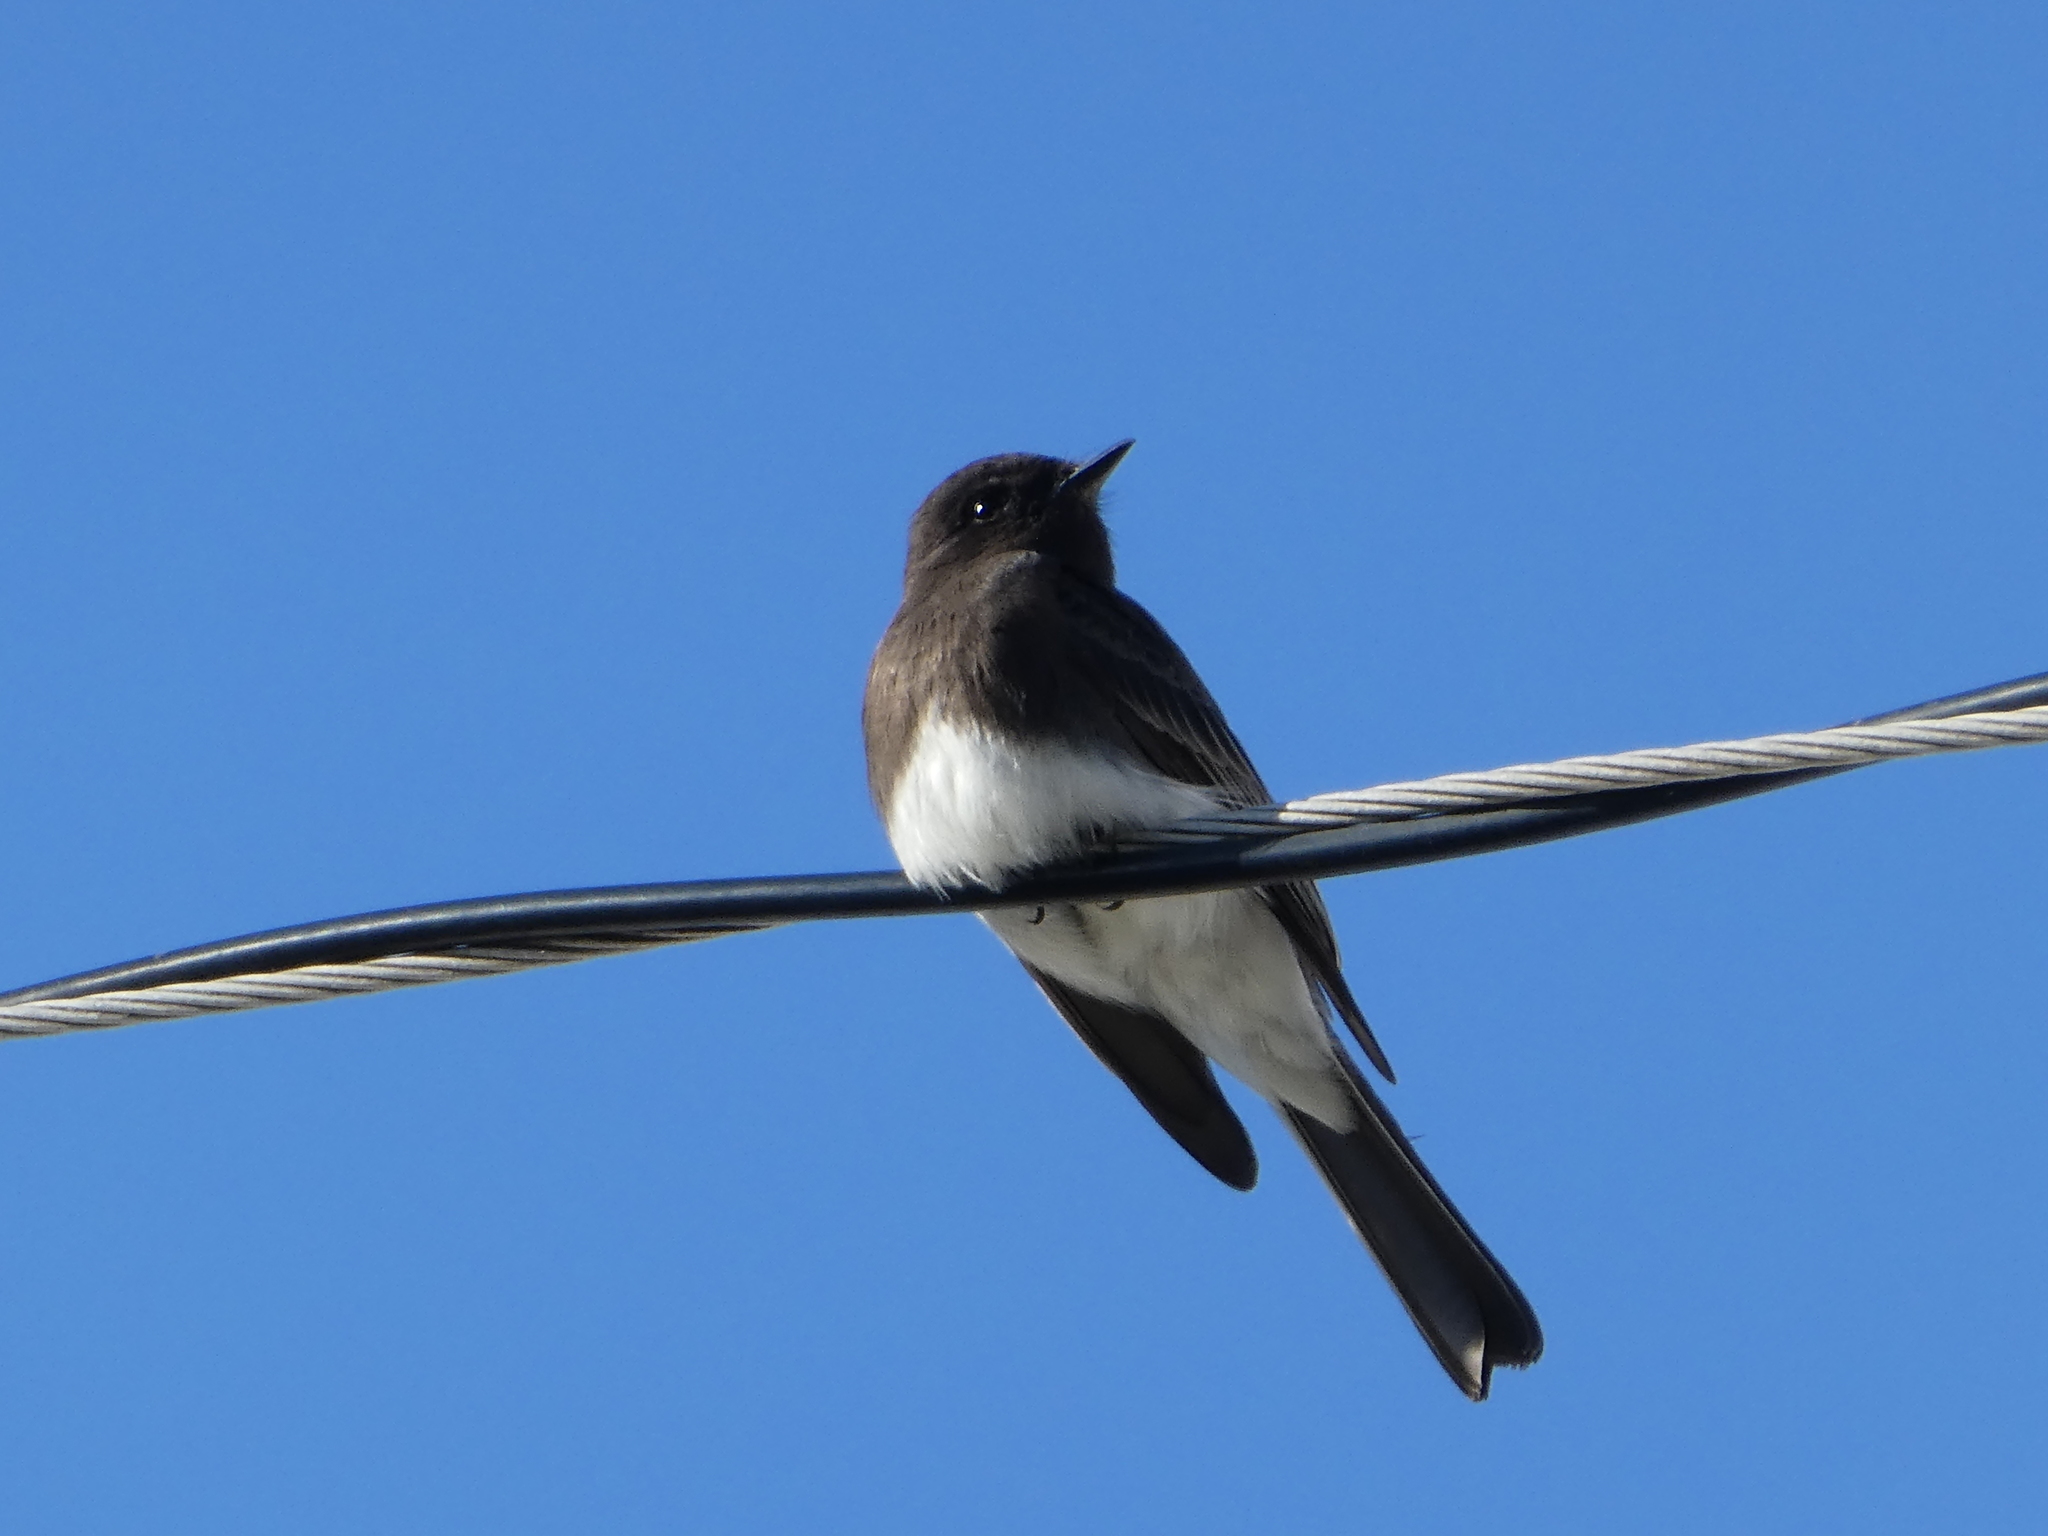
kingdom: Animalia
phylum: Chordata
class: Aves
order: Passeriformes
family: Tyrannidae
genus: Sayornis
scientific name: Sayornis nigricans
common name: Black phoebe
